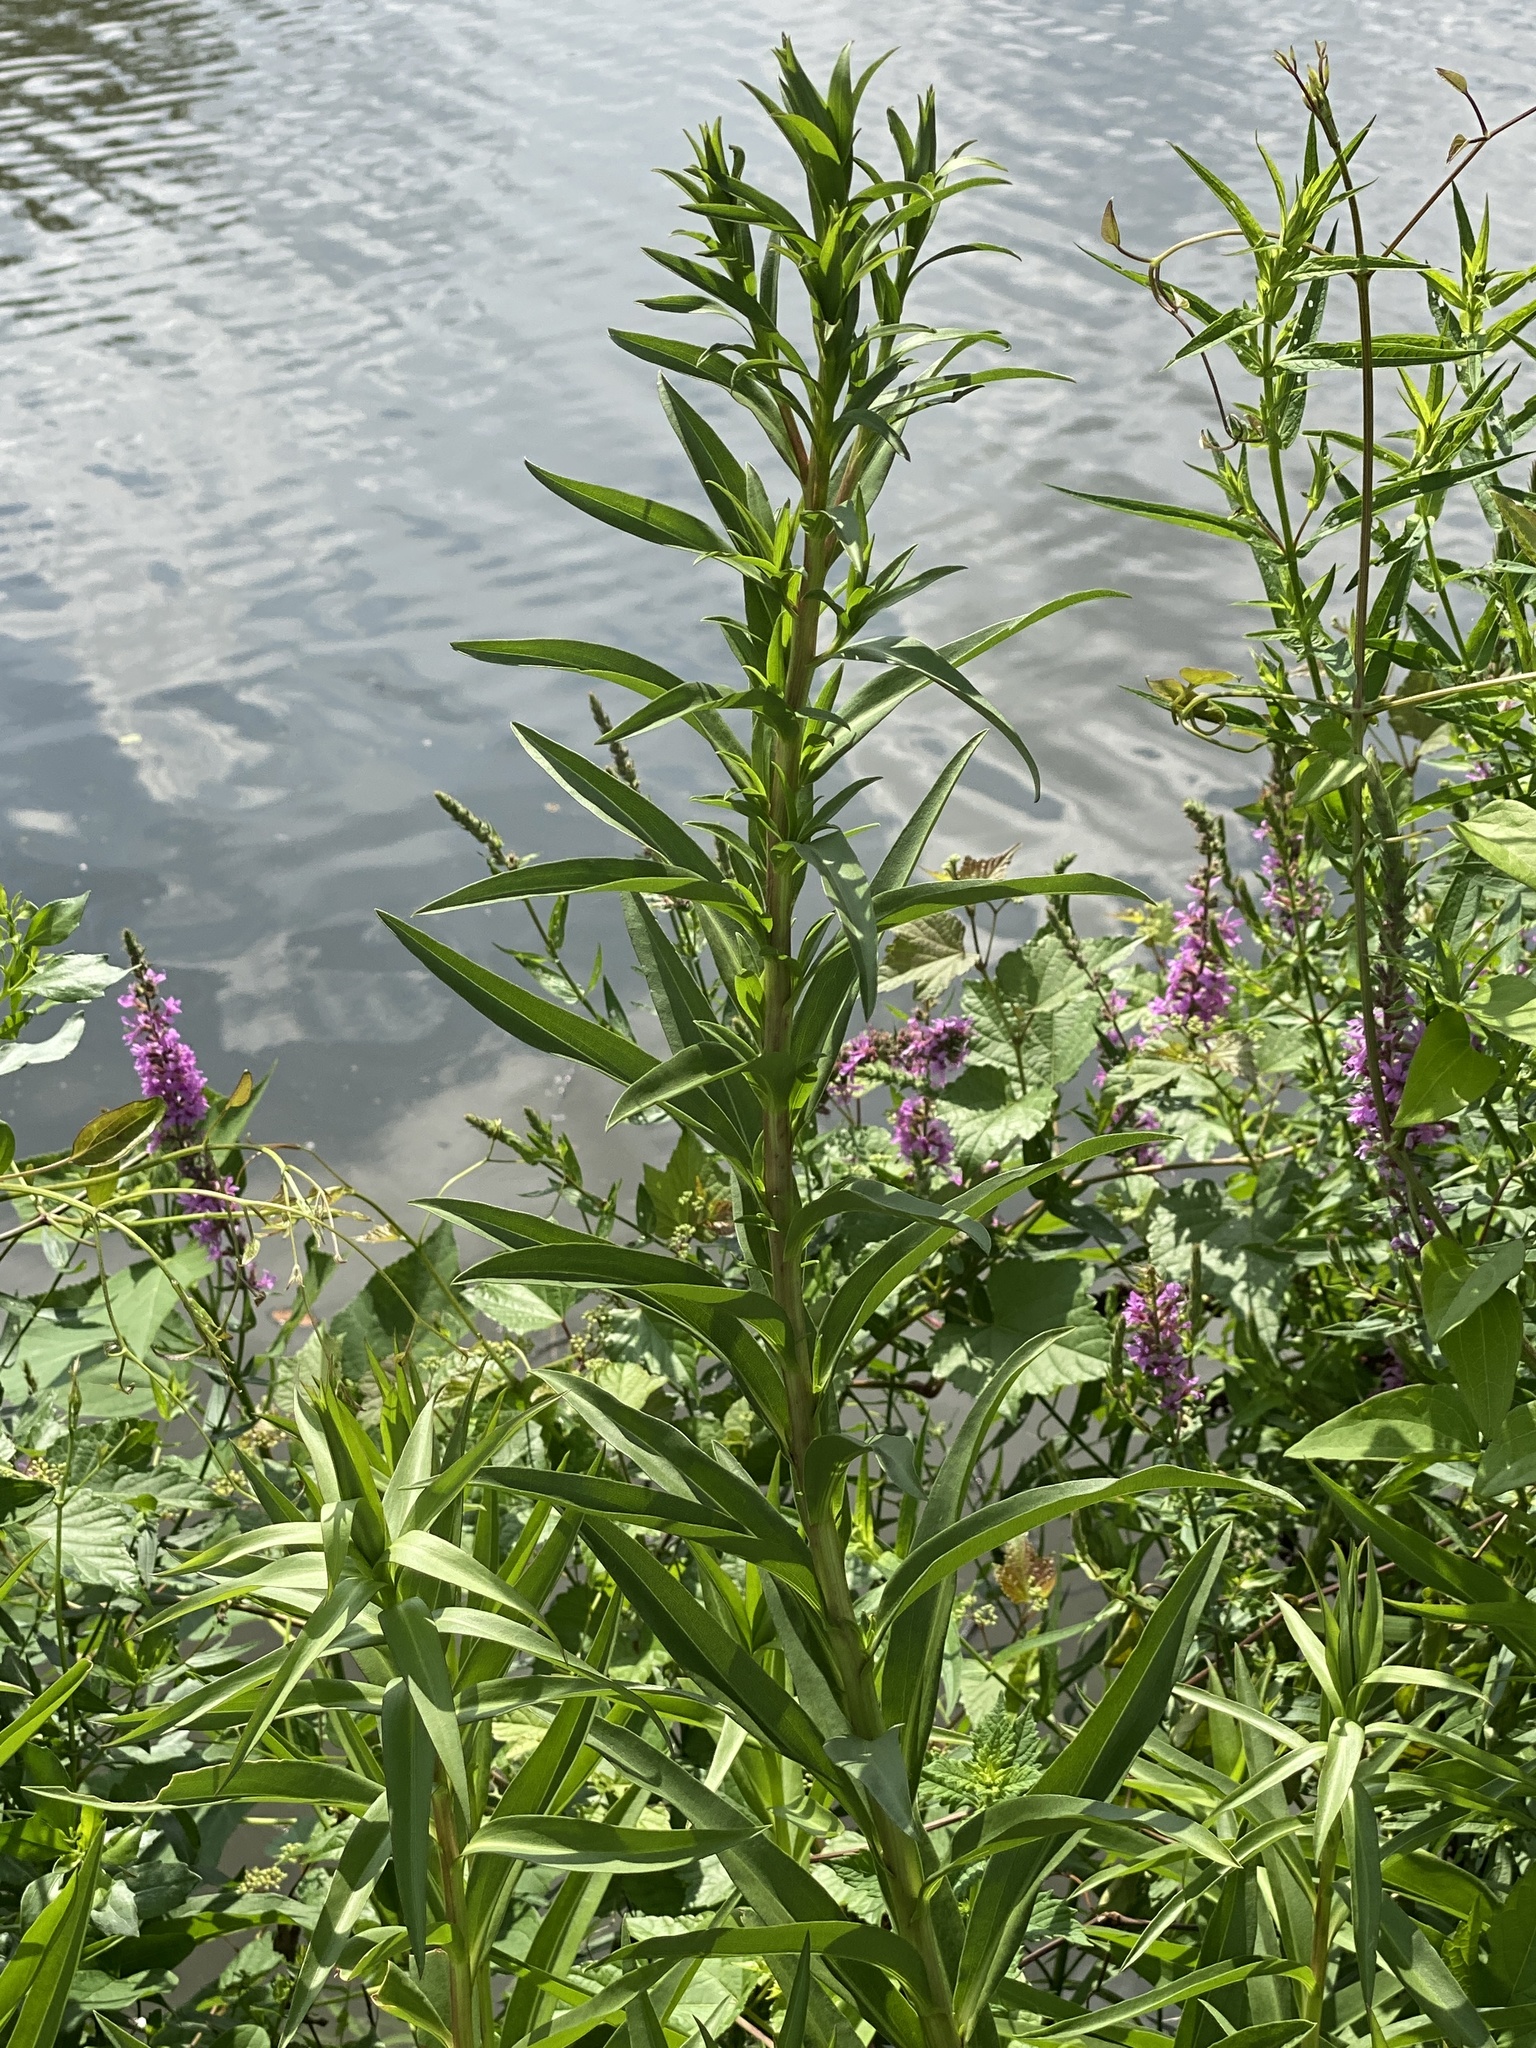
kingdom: Plantae
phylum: Tracheophyta
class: Magnoliopsida
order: Asterales
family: Asteraceae
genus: Solidago
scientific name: Solidago sempervirens
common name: Salt-marsh goldenrod
